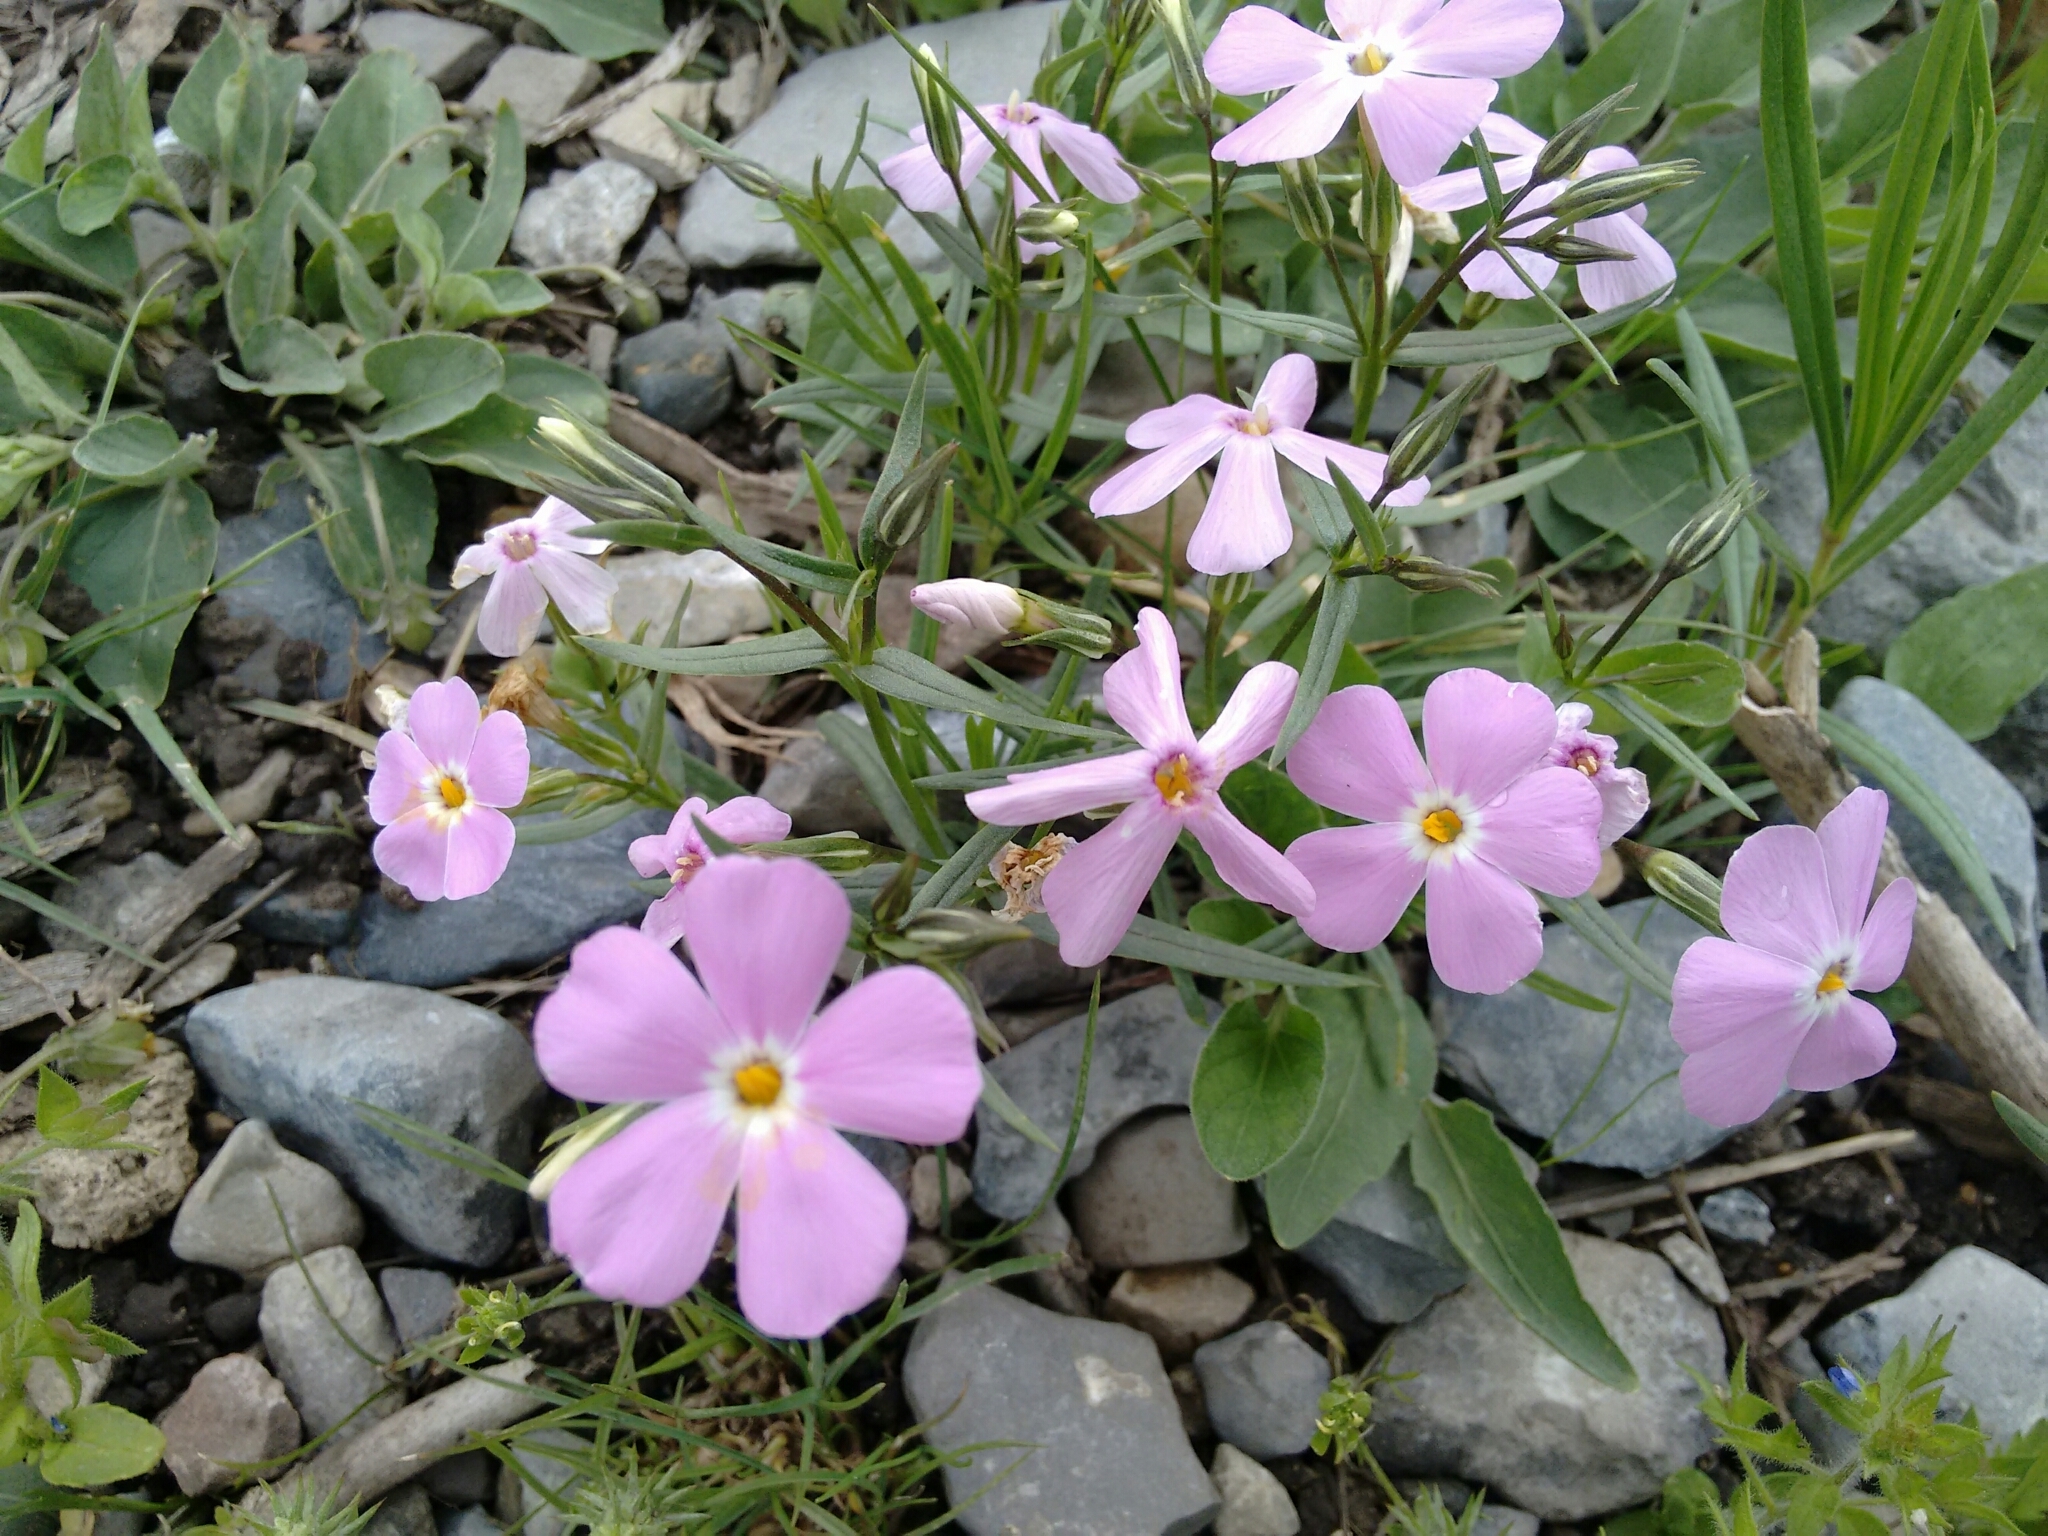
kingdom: Plantae
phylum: Tracheophyta
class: Magnoliopsida
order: Ericales
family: Polemoniaceae
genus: Phlox
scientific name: Phlox longifolia
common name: Longleaf phlox
